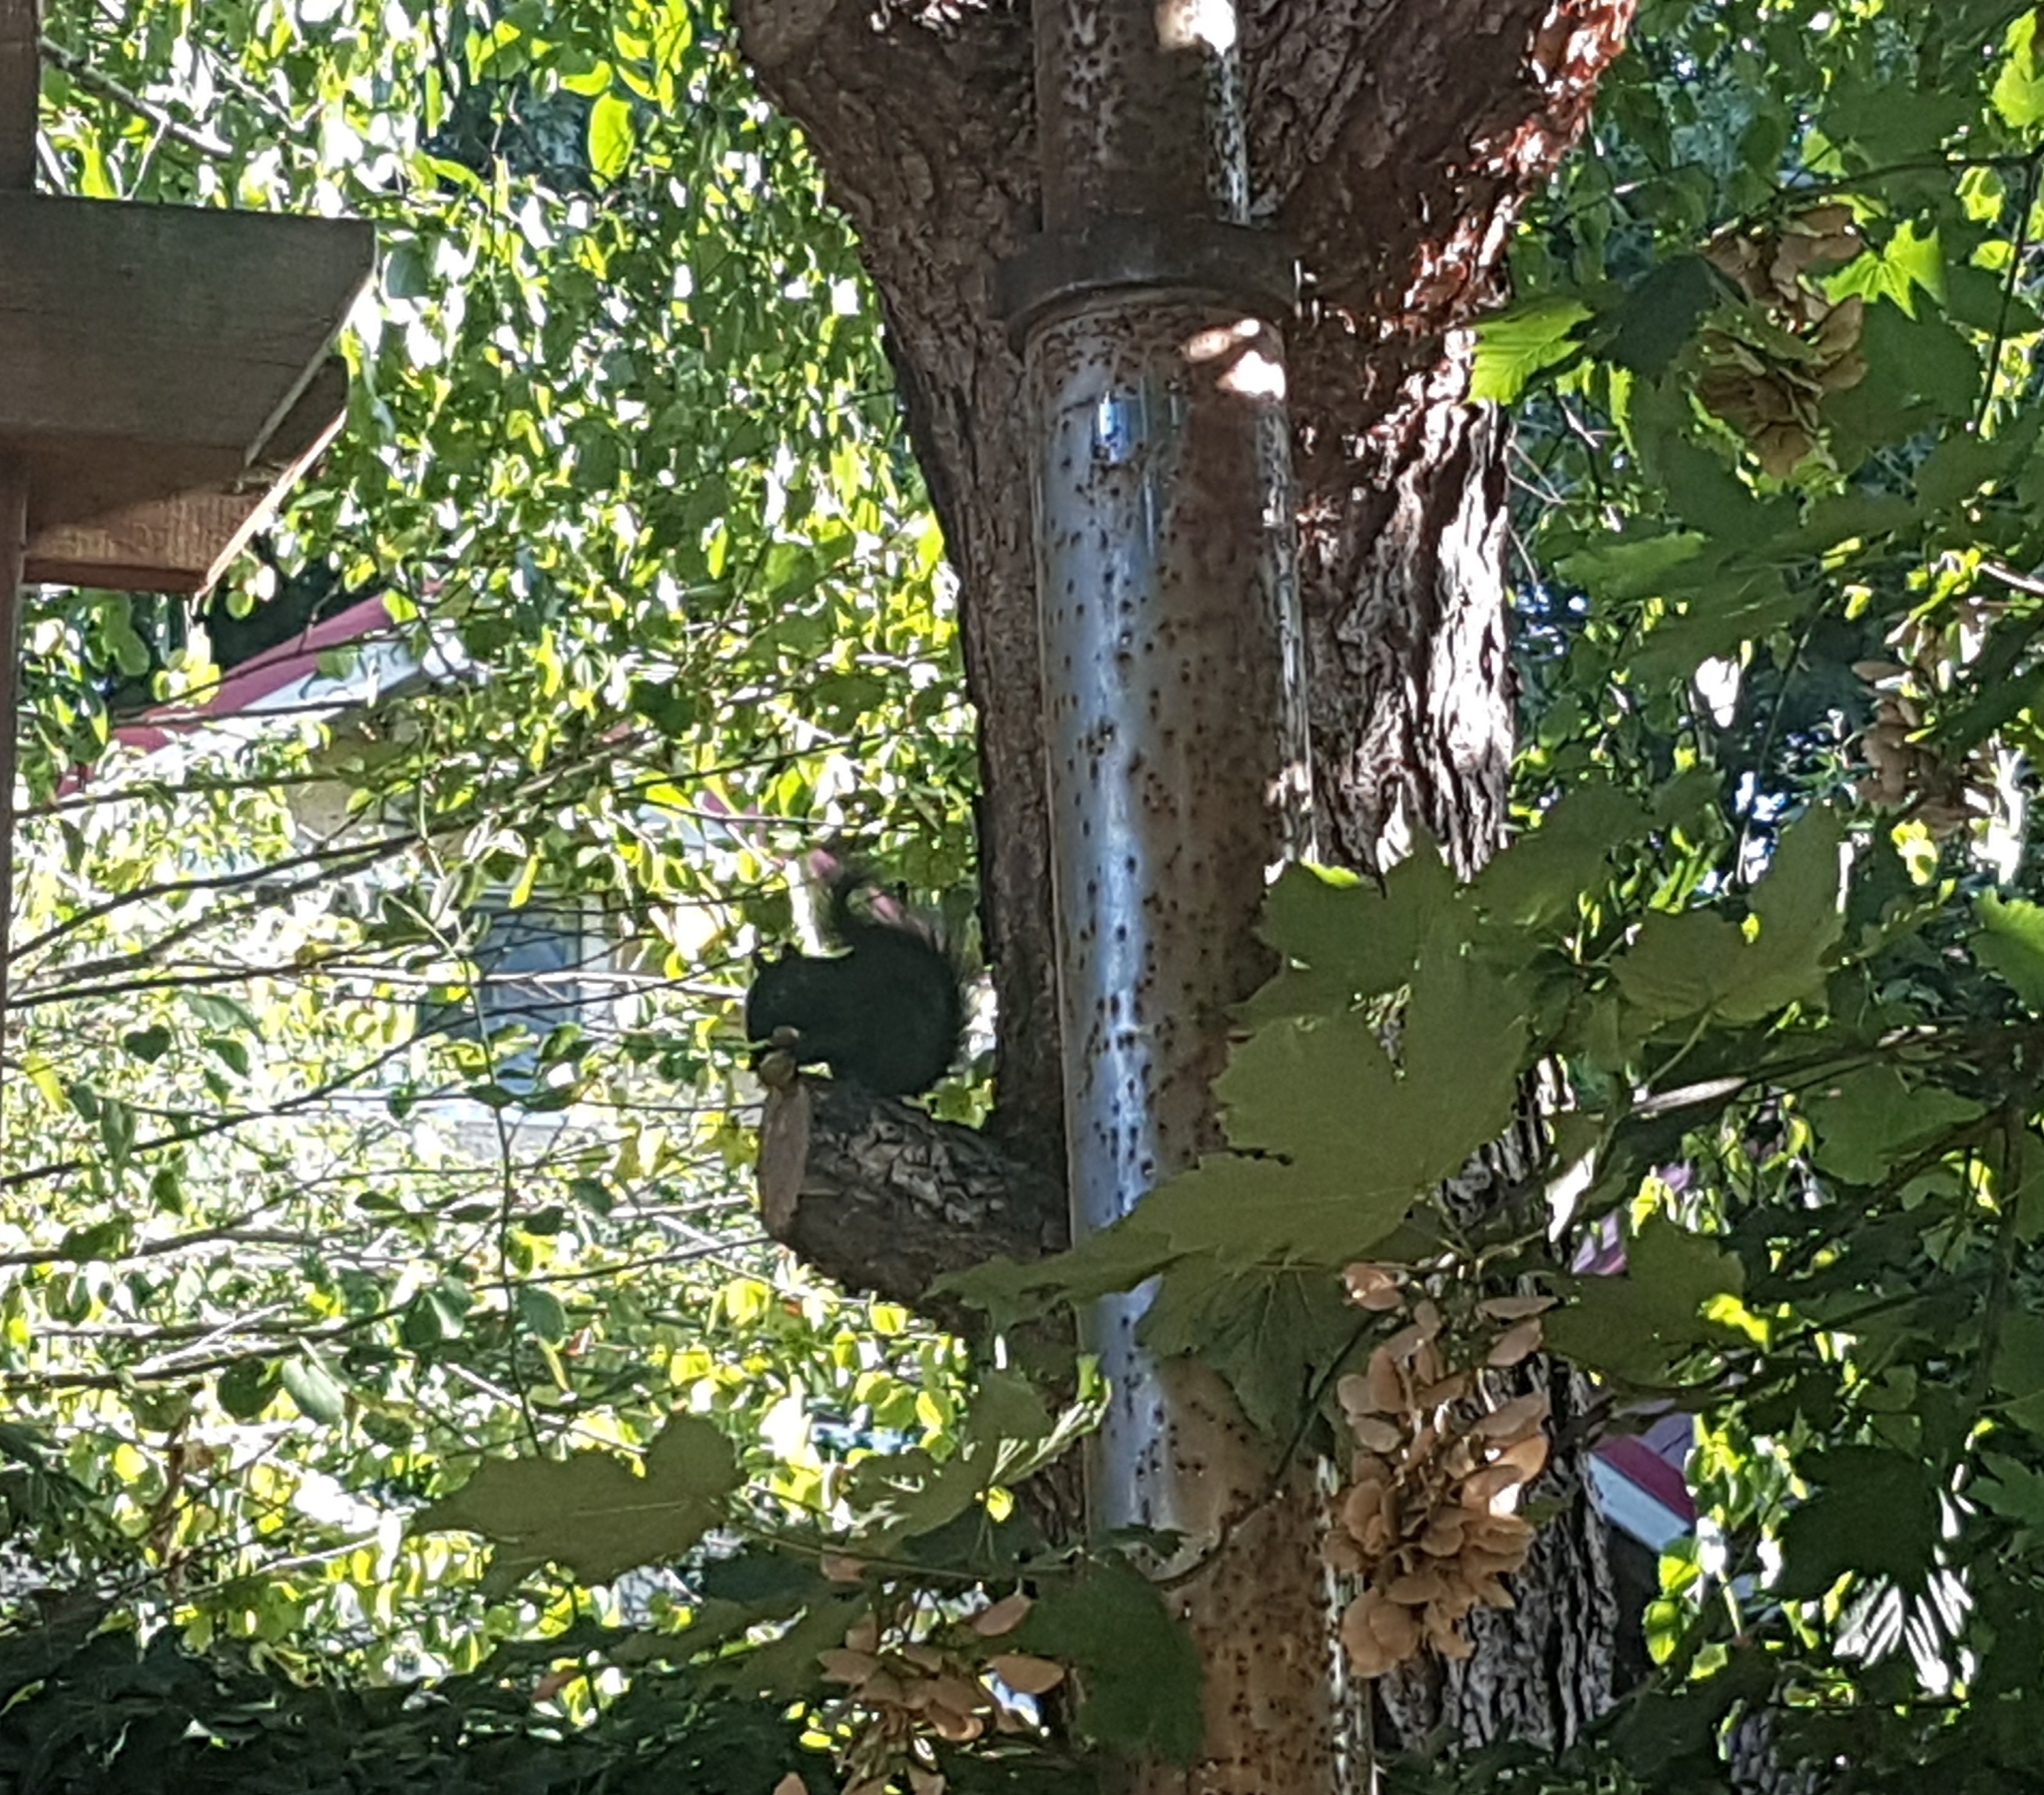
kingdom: Animalia
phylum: Chordata
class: Mammalia
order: Rodentia
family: Sciuridae
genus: Sciurus
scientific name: Sciurus carolinensis
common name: Eastern gray squirrel
